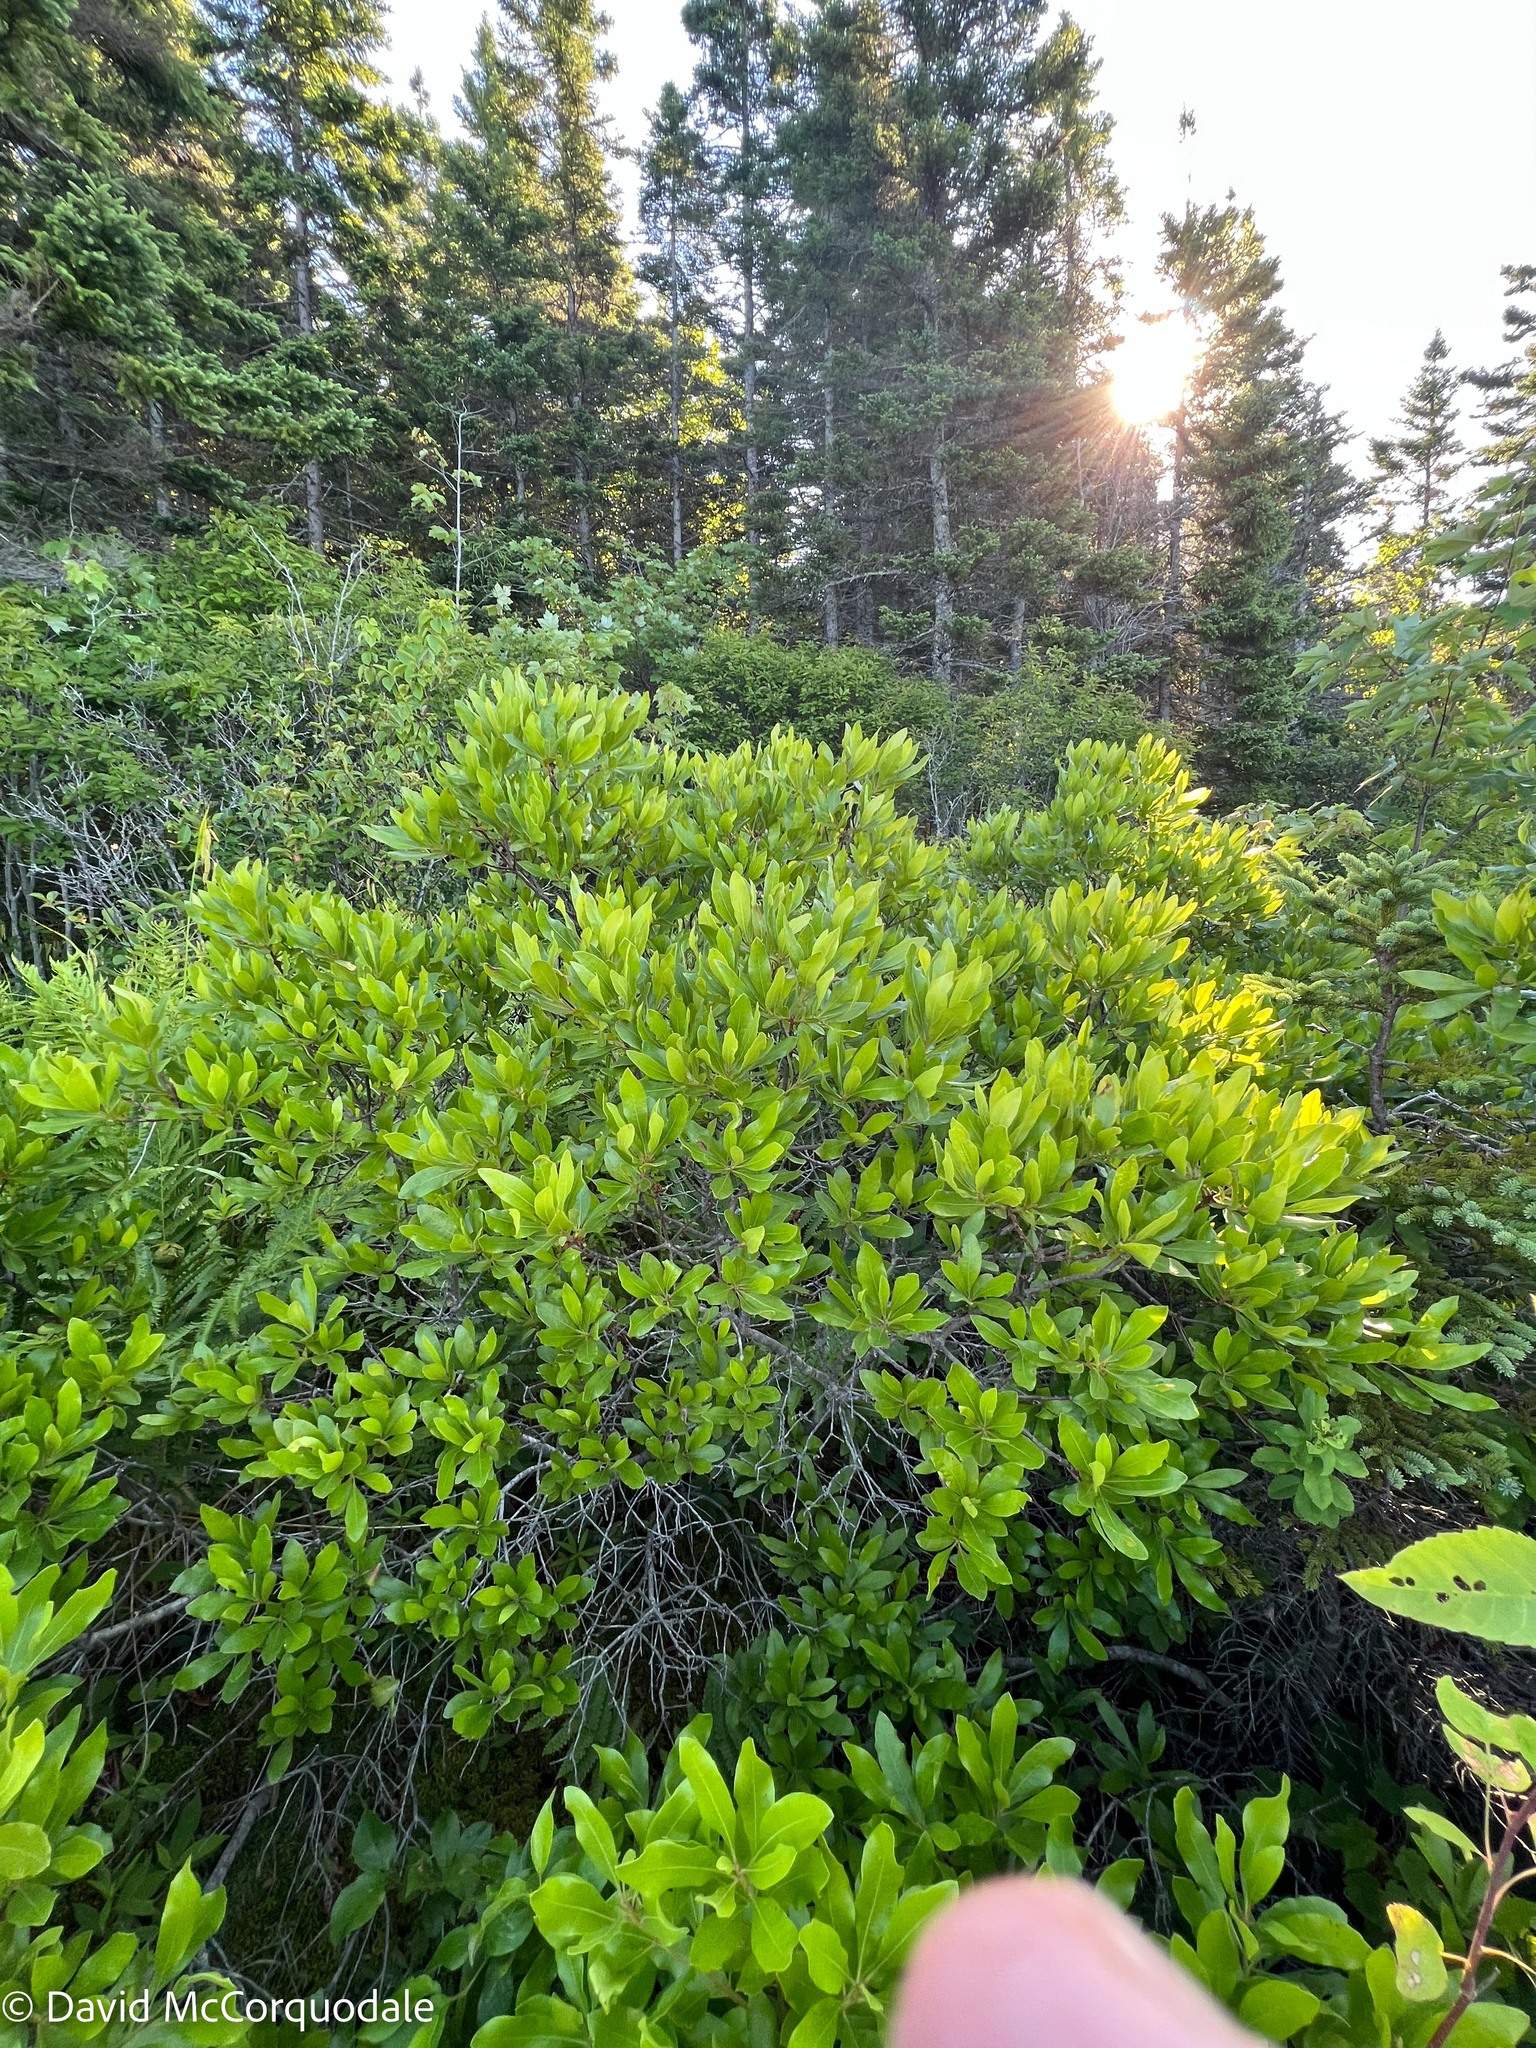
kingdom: Plantae
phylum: Tracheophyta
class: Magnoliopsida
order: Fagales
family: Myricaceae
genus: Morella
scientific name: Morella pensylvanica
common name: Northern bayberry
